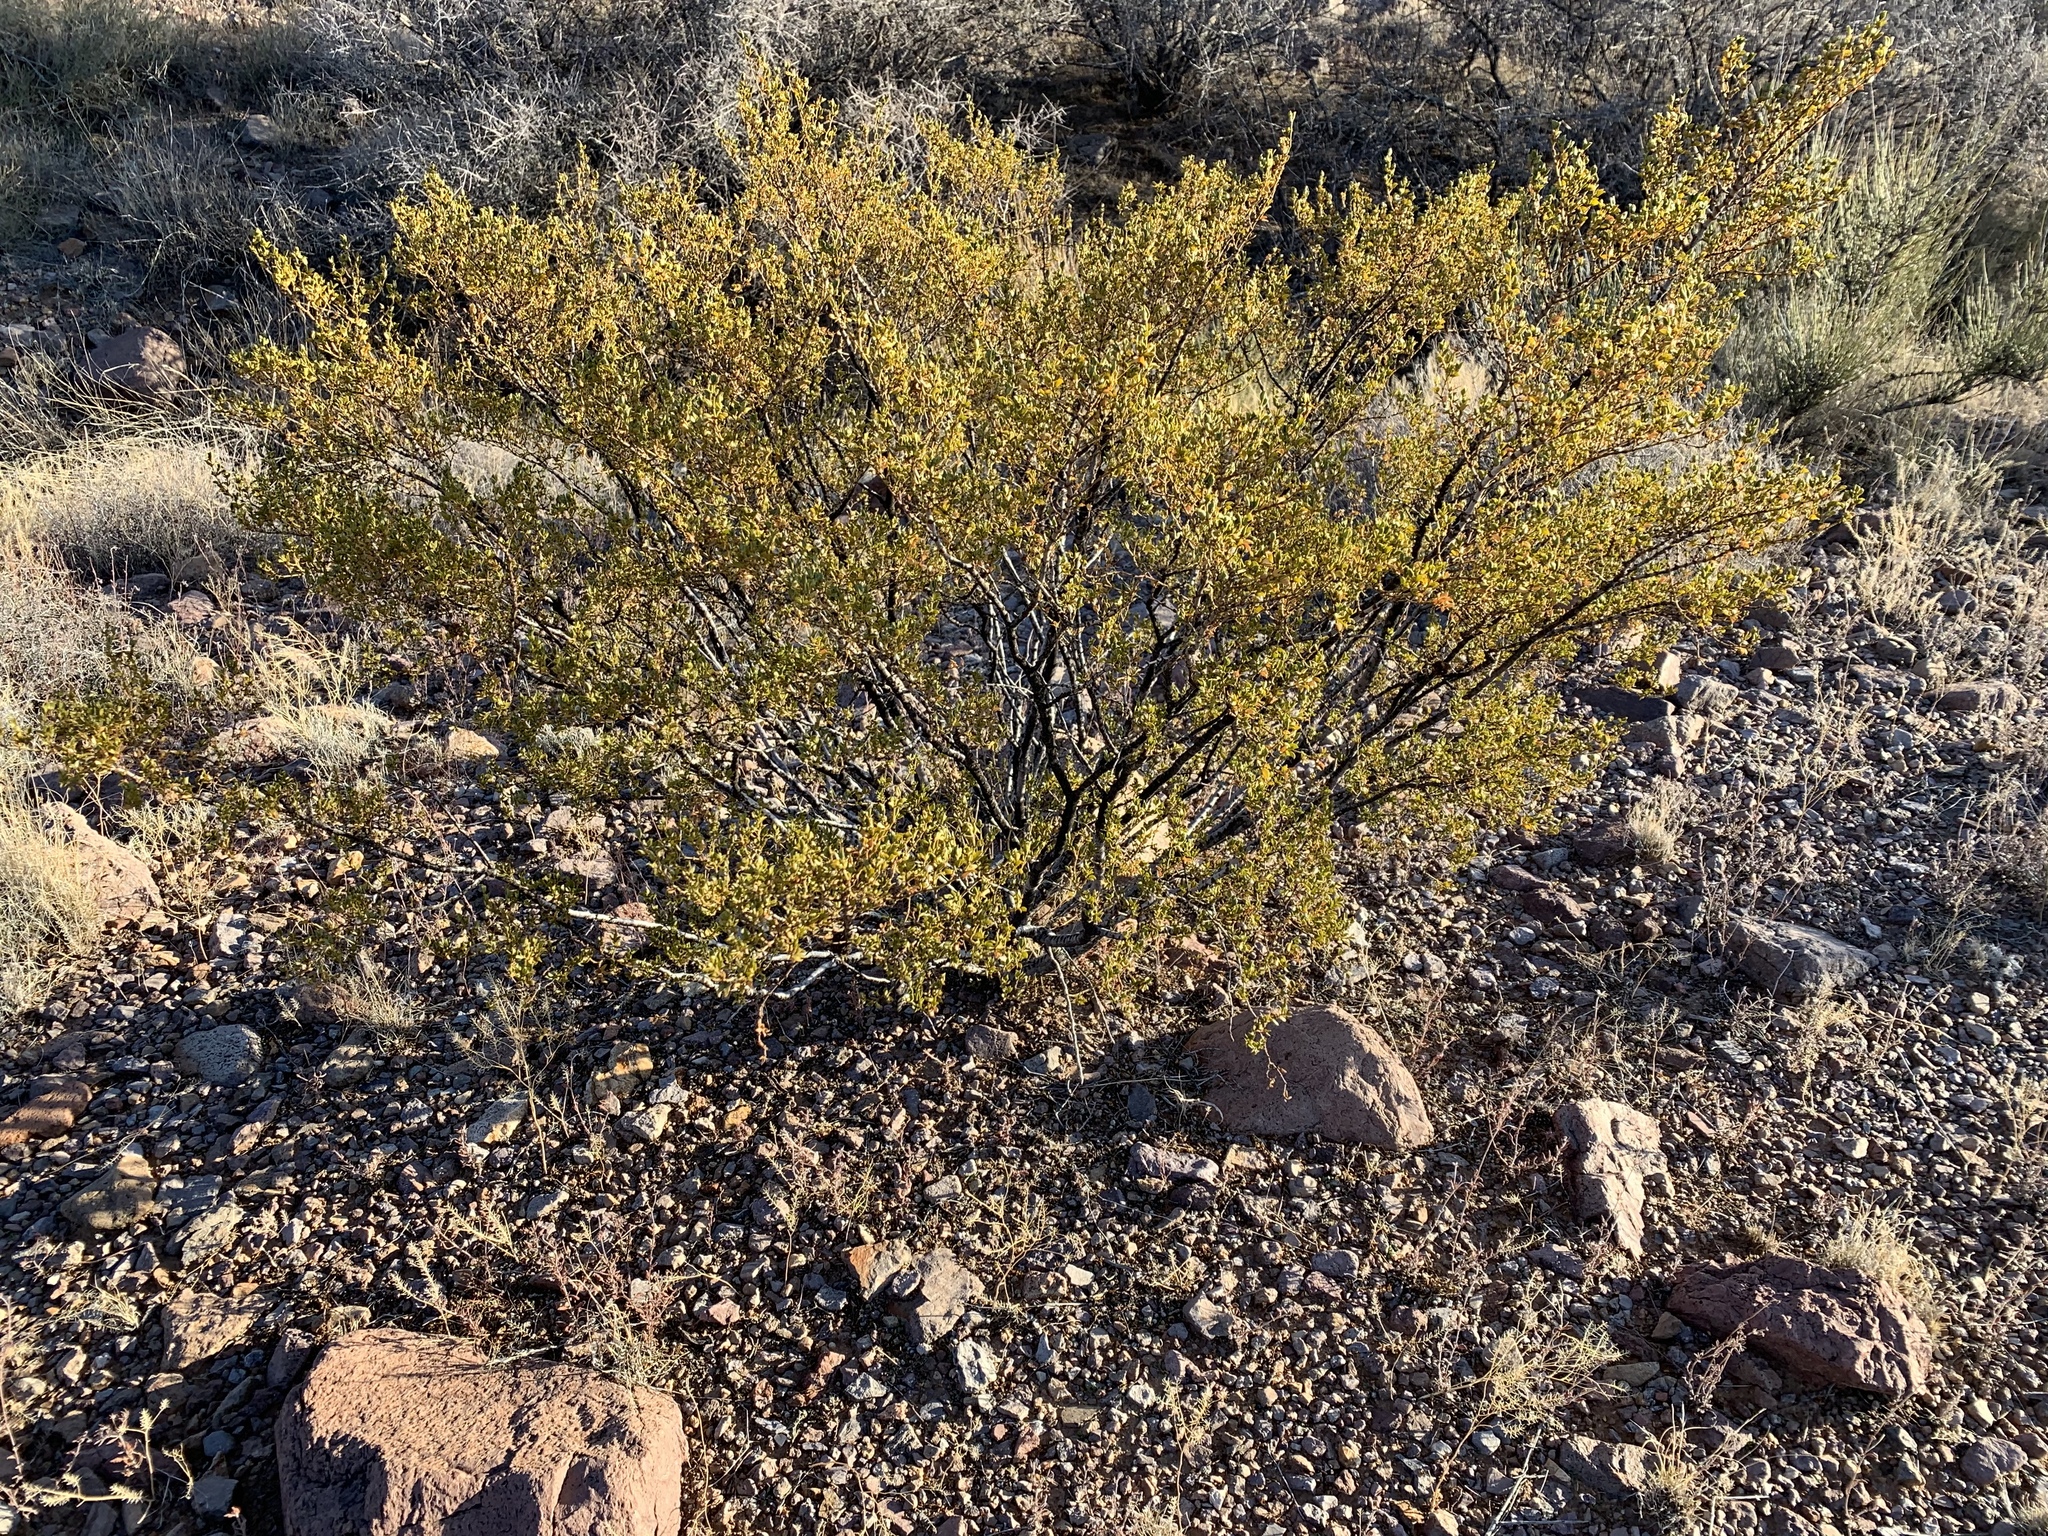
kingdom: Plantae
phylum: Tracheophyta
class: Magnoliopsida
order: Zygophyllales
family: Zygophyllaceae
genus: Larrea
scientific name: Larrea tridentata
